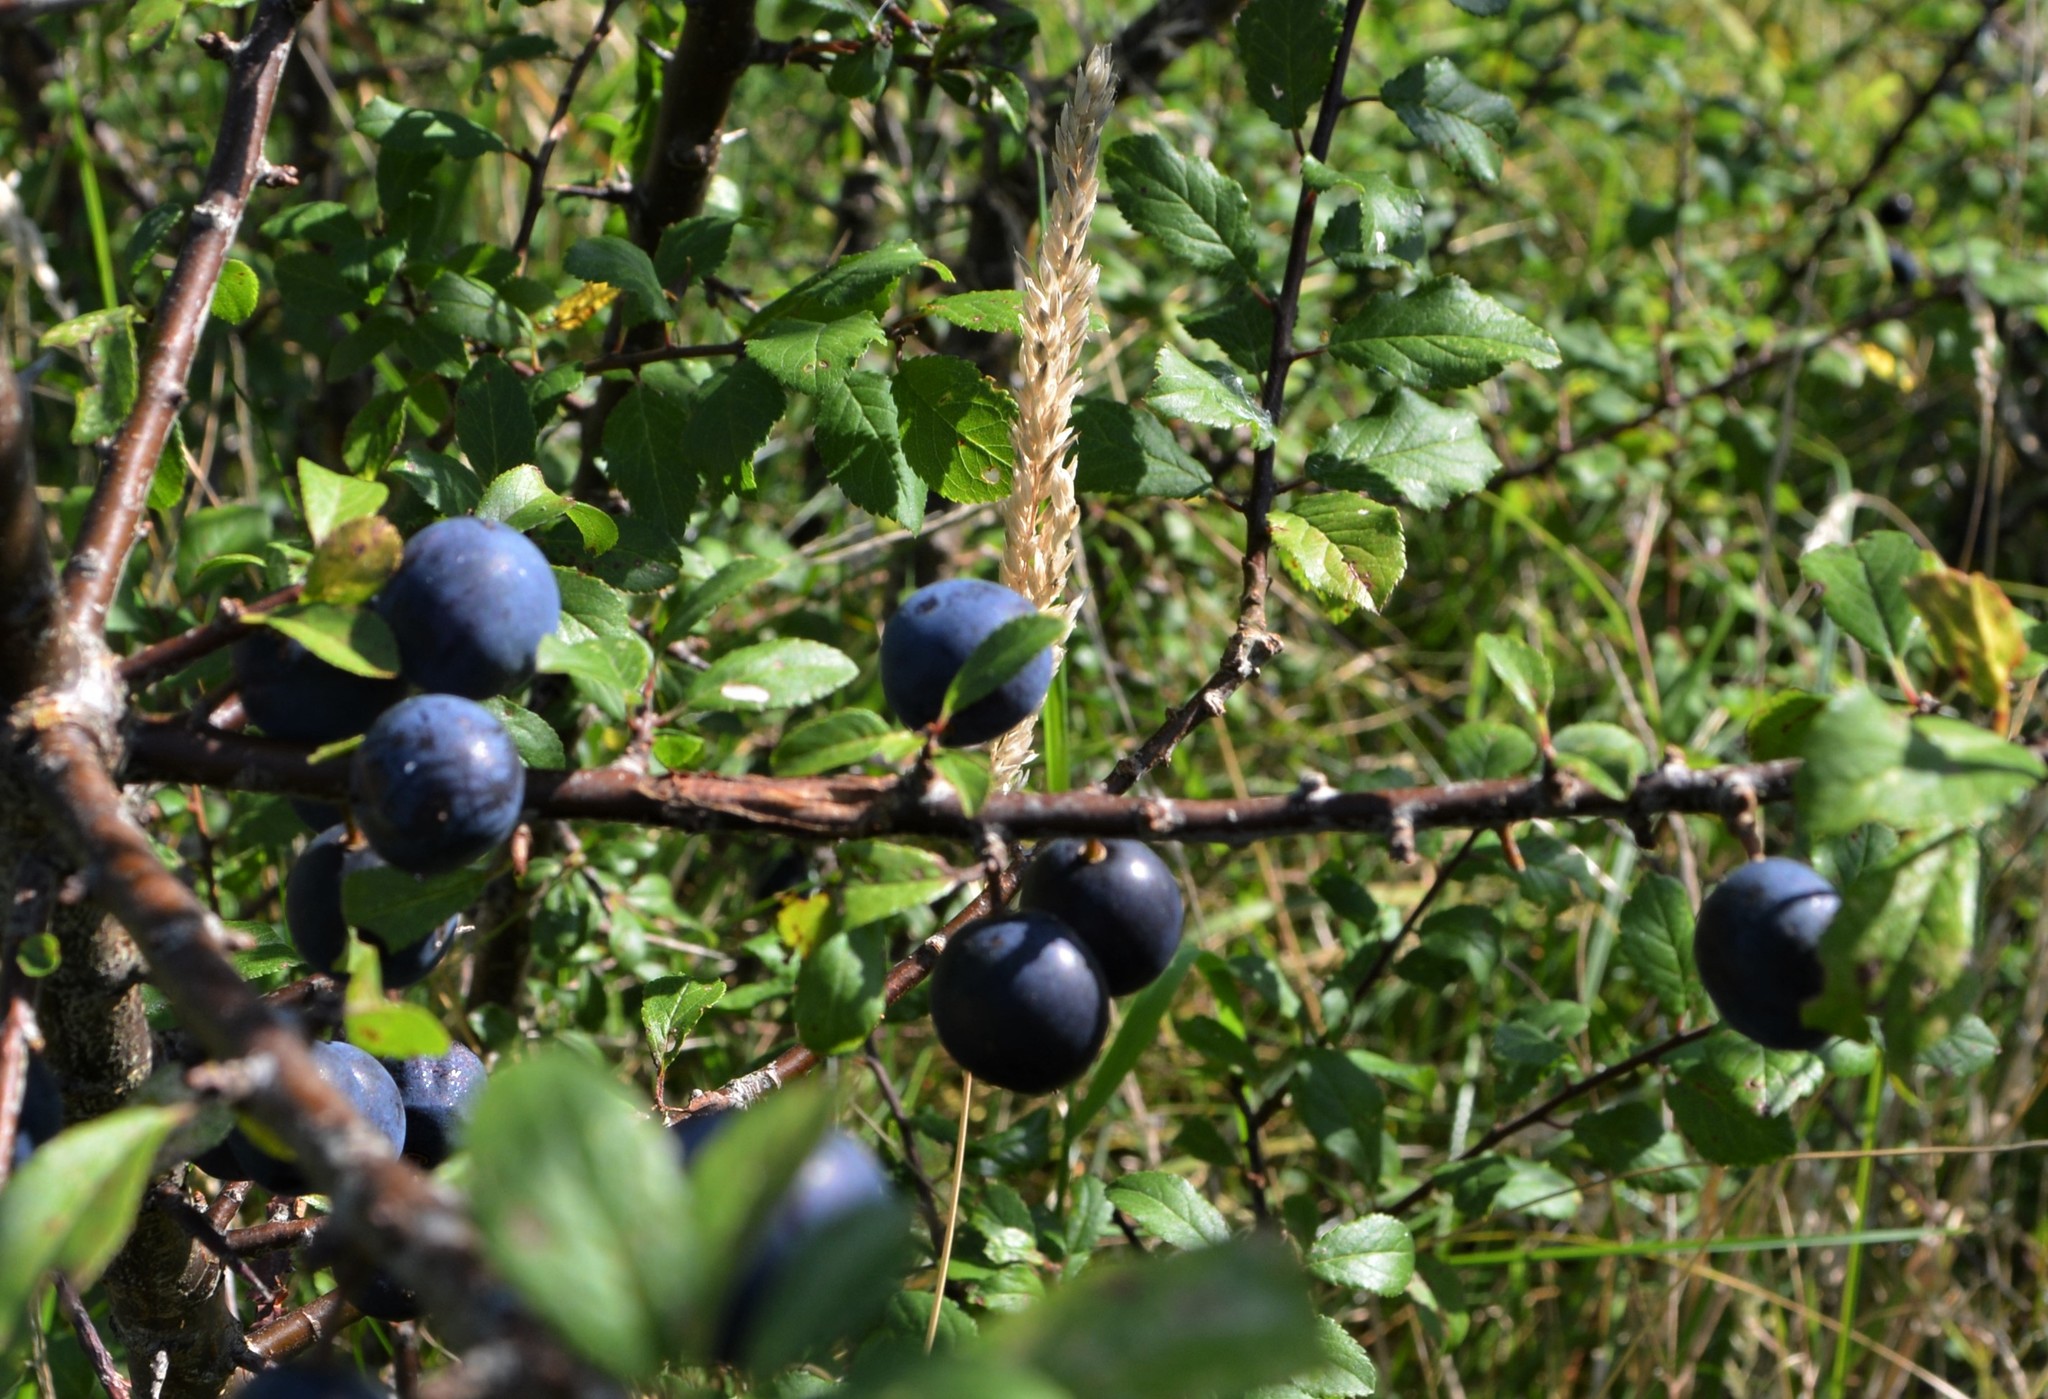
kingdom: Plantae
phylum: Tracheophyta
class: Magnoliopsida
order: Rosales
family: Rosaceae
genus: Prunus
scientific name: Prunus spinosa
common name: Blackthorn
